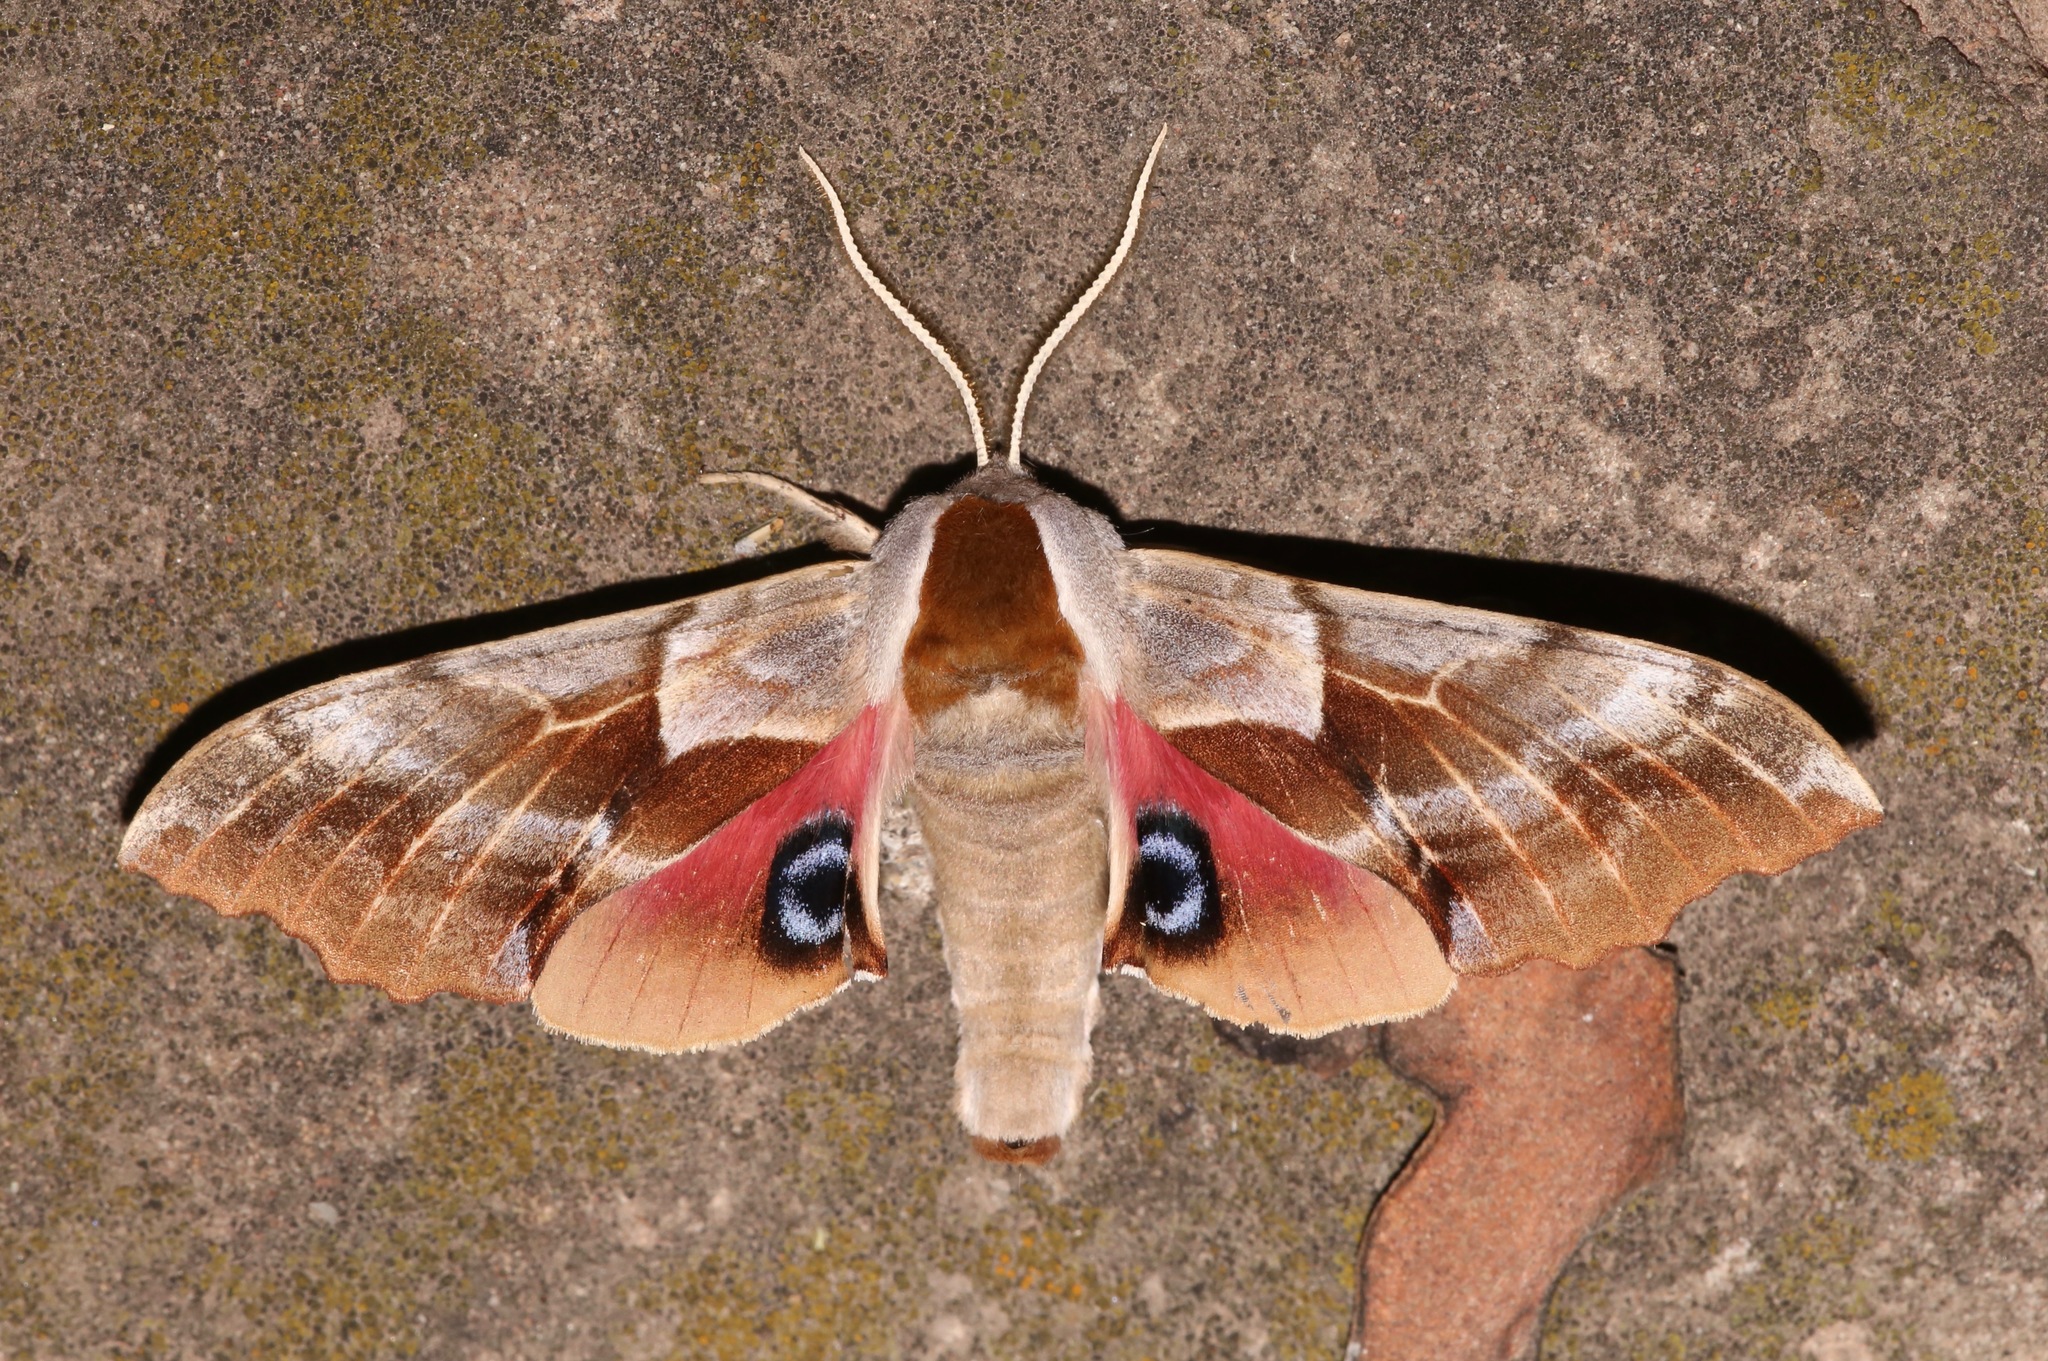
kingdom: Animalia
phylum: Arthropoda
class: Insecta
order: Lepidoptera
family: Sphingidae
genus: Smerinthus
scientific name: Smerinthus saliceti
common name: Salicet sphinx
